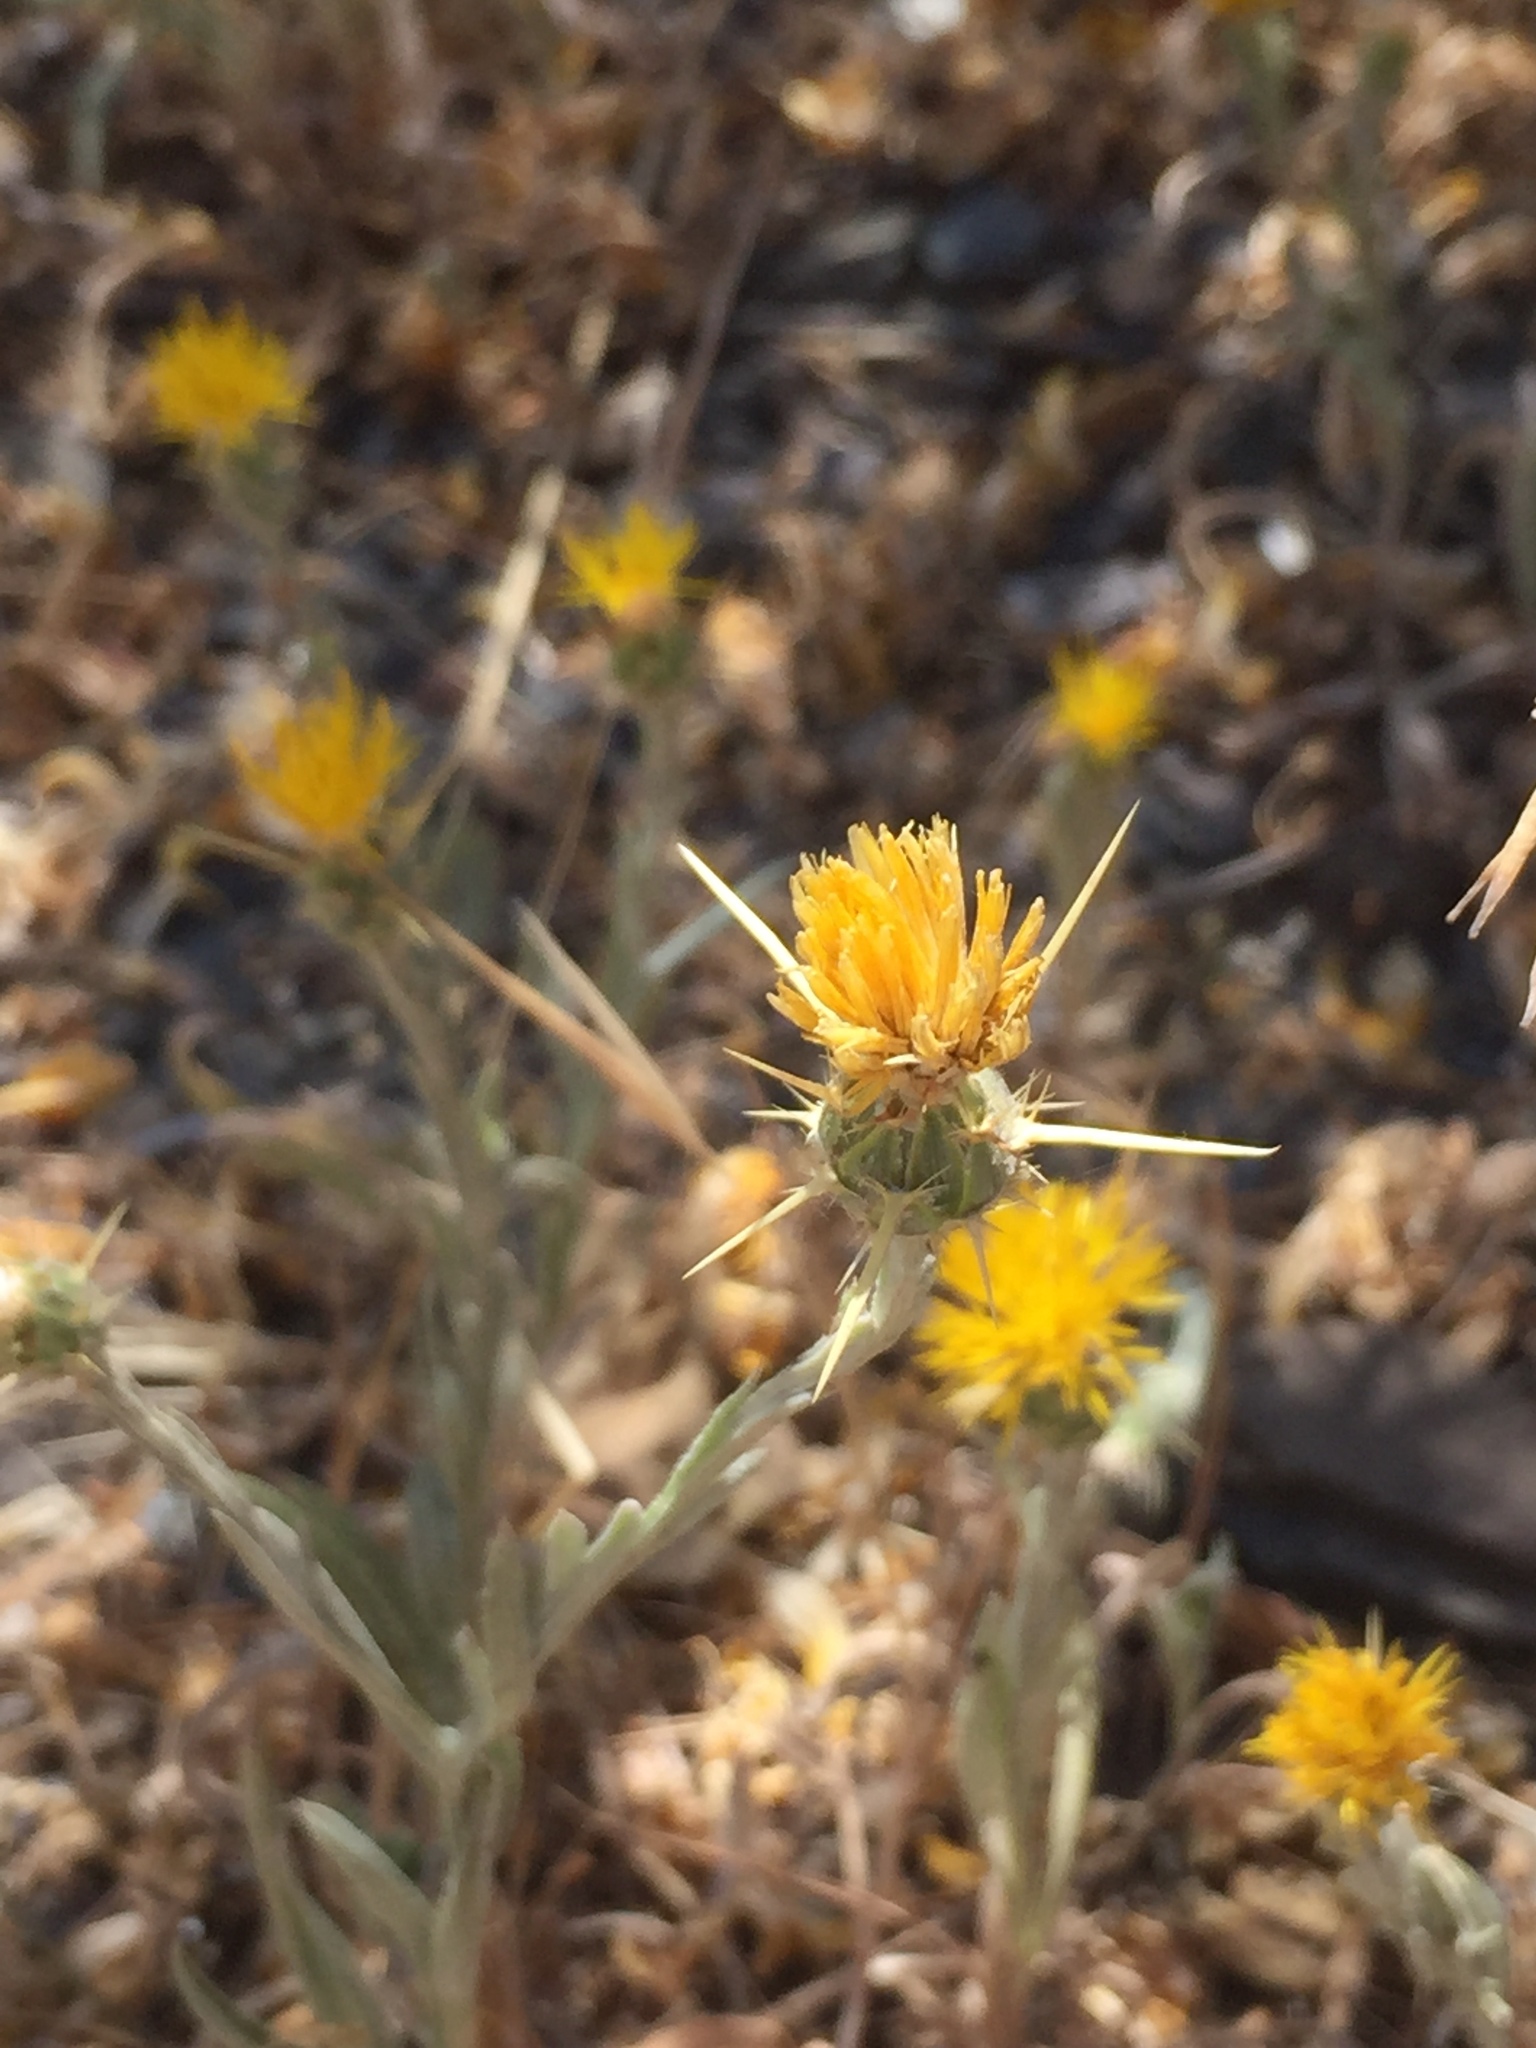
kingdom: Plantae
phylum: Tracheophyta
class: Magnoliopsida
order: Asterales
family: Asteraceae
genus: Centaurea
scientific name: Centaurea solstitialis
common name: Yellow star-thistle
